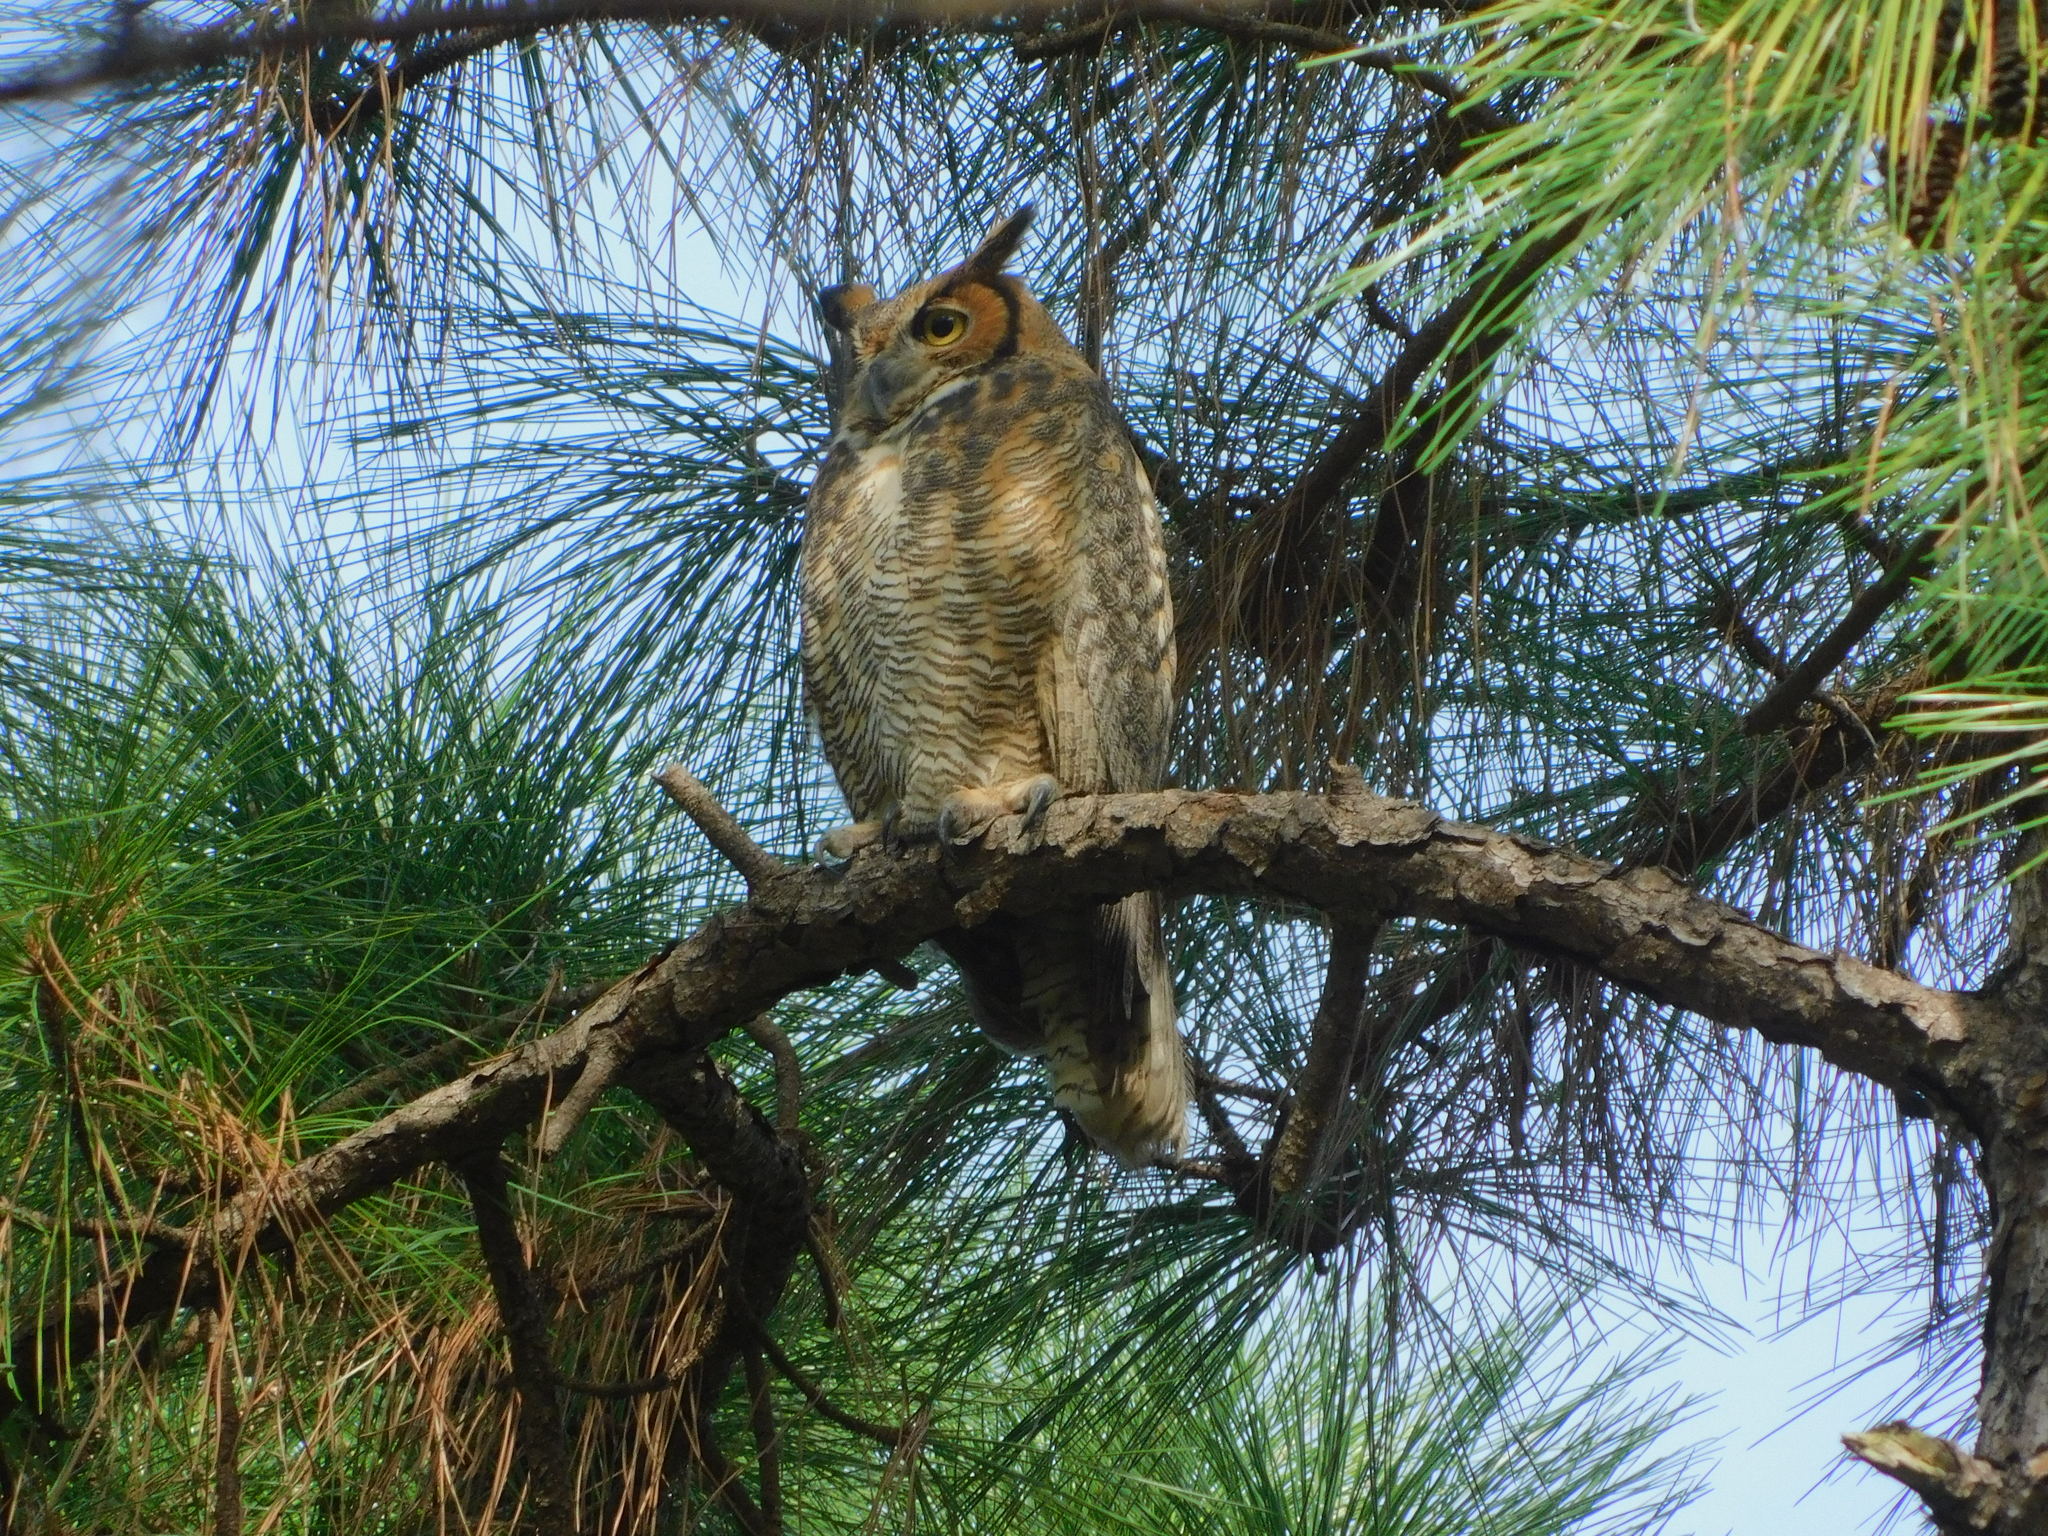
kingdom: Animalia
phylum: Chordata
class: Aves
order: Strigiformes
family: Strigidae
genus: Bubo
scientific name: Bubo virginianus
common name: Great horned owl
